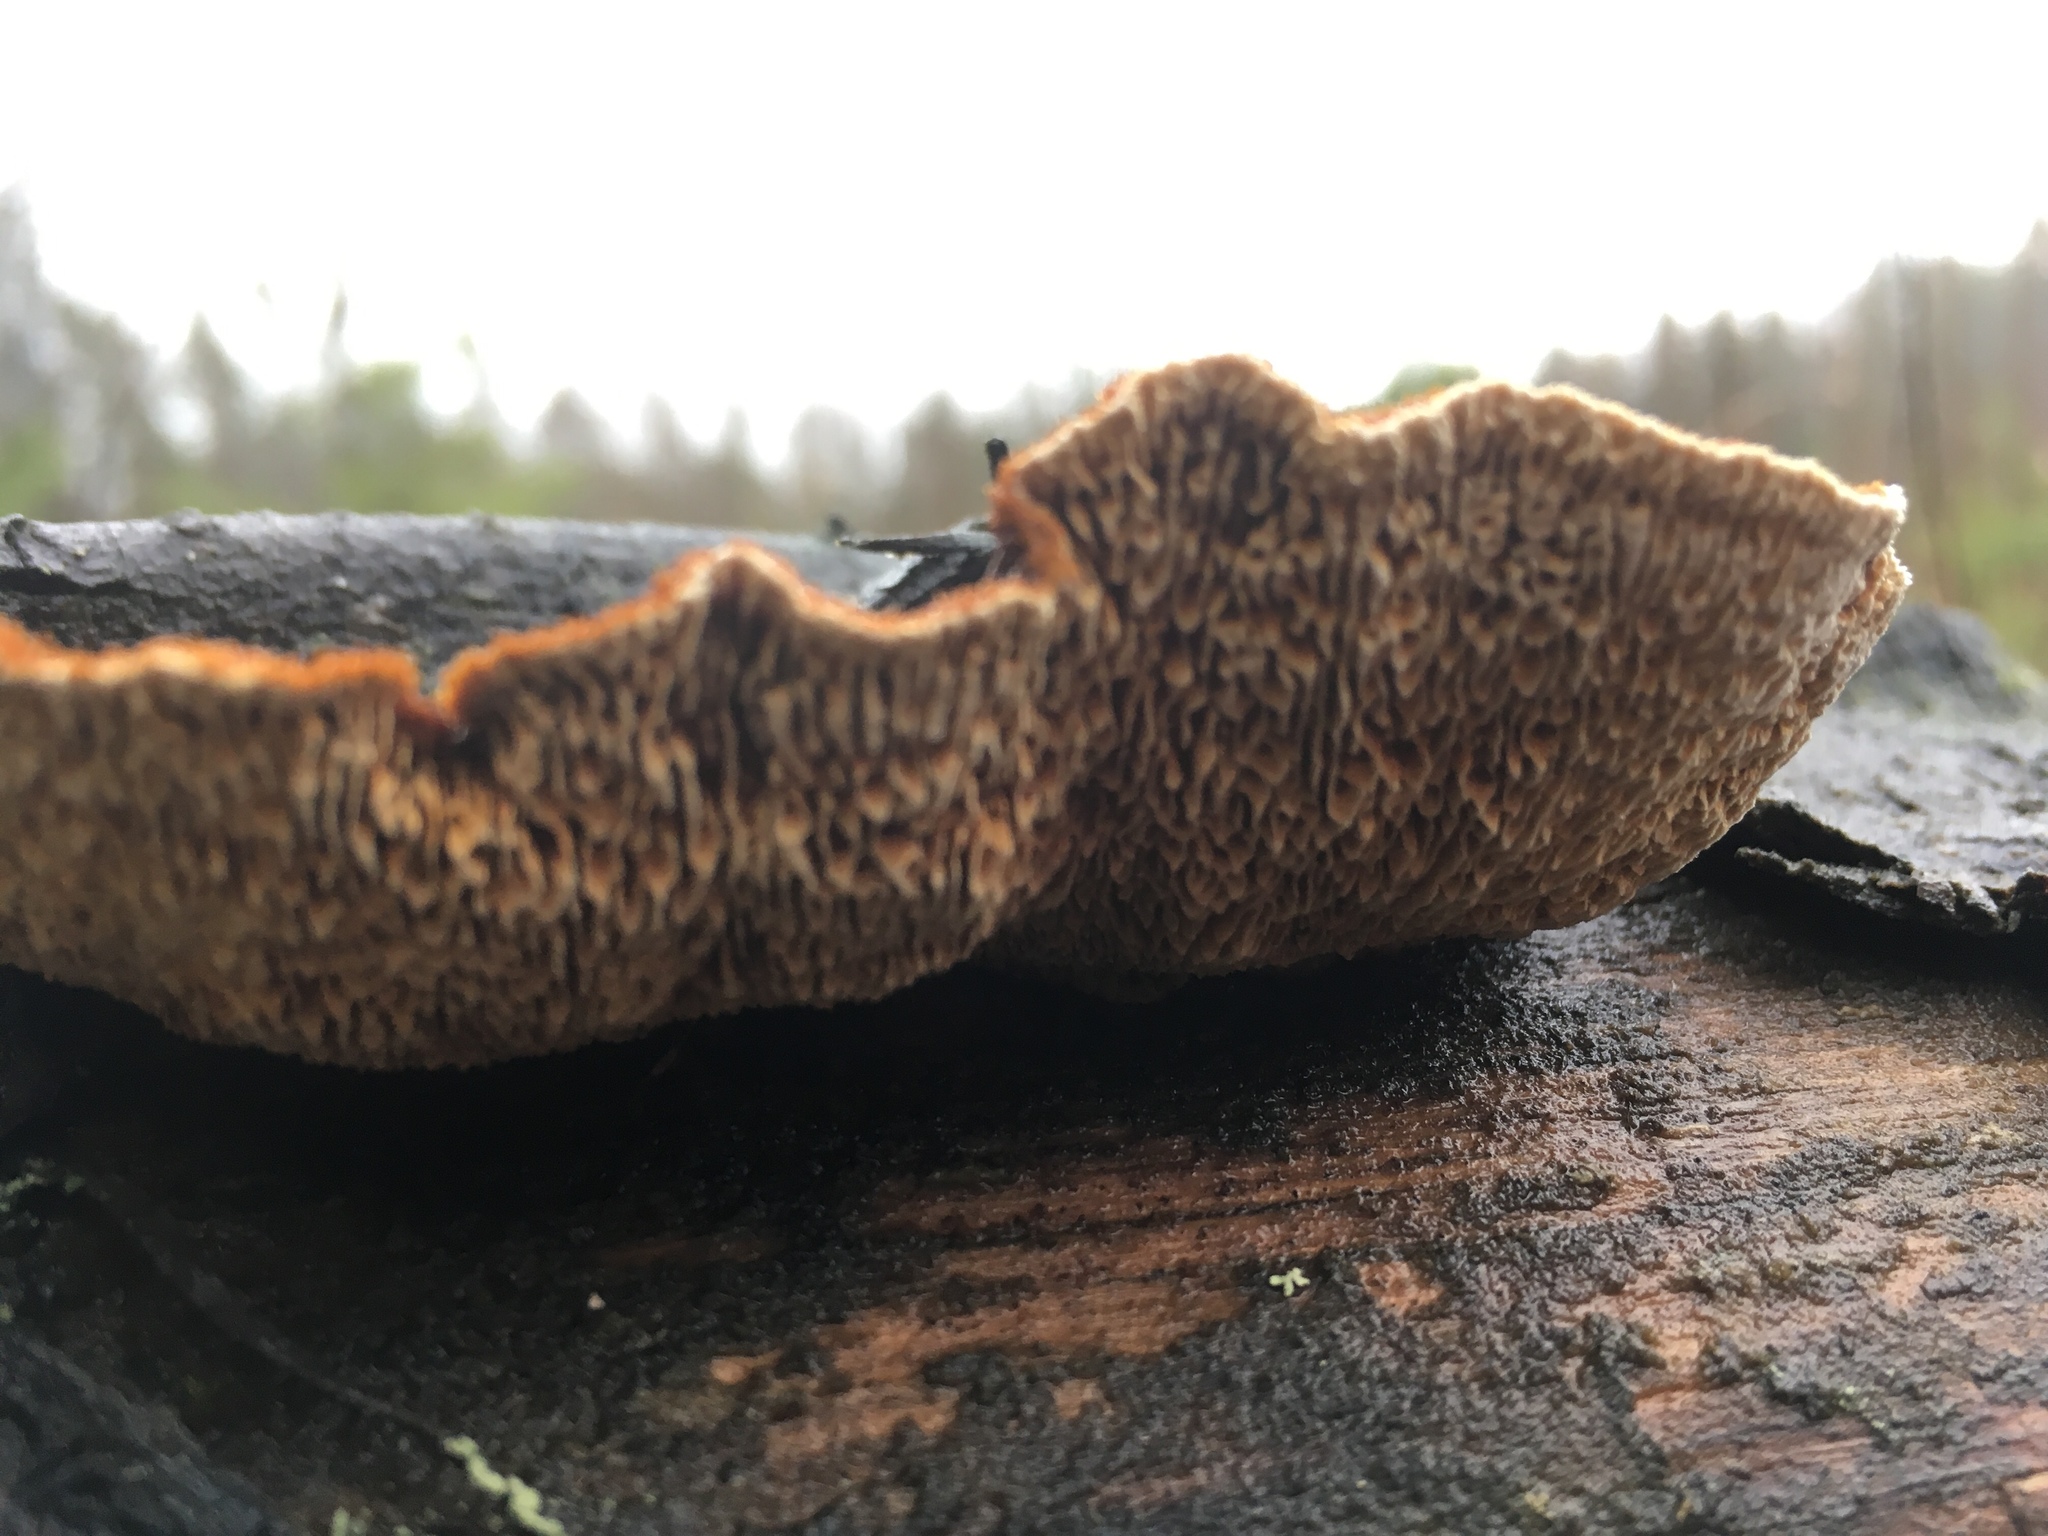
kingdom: Fungi
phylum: Basidiomycota
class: Agaricomycetes
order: Gloeophyllales
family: Gloeophyllaceae
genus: Gloeophyllum
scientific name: Gloeophyllum sepiarium
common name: Conifer mazegill
